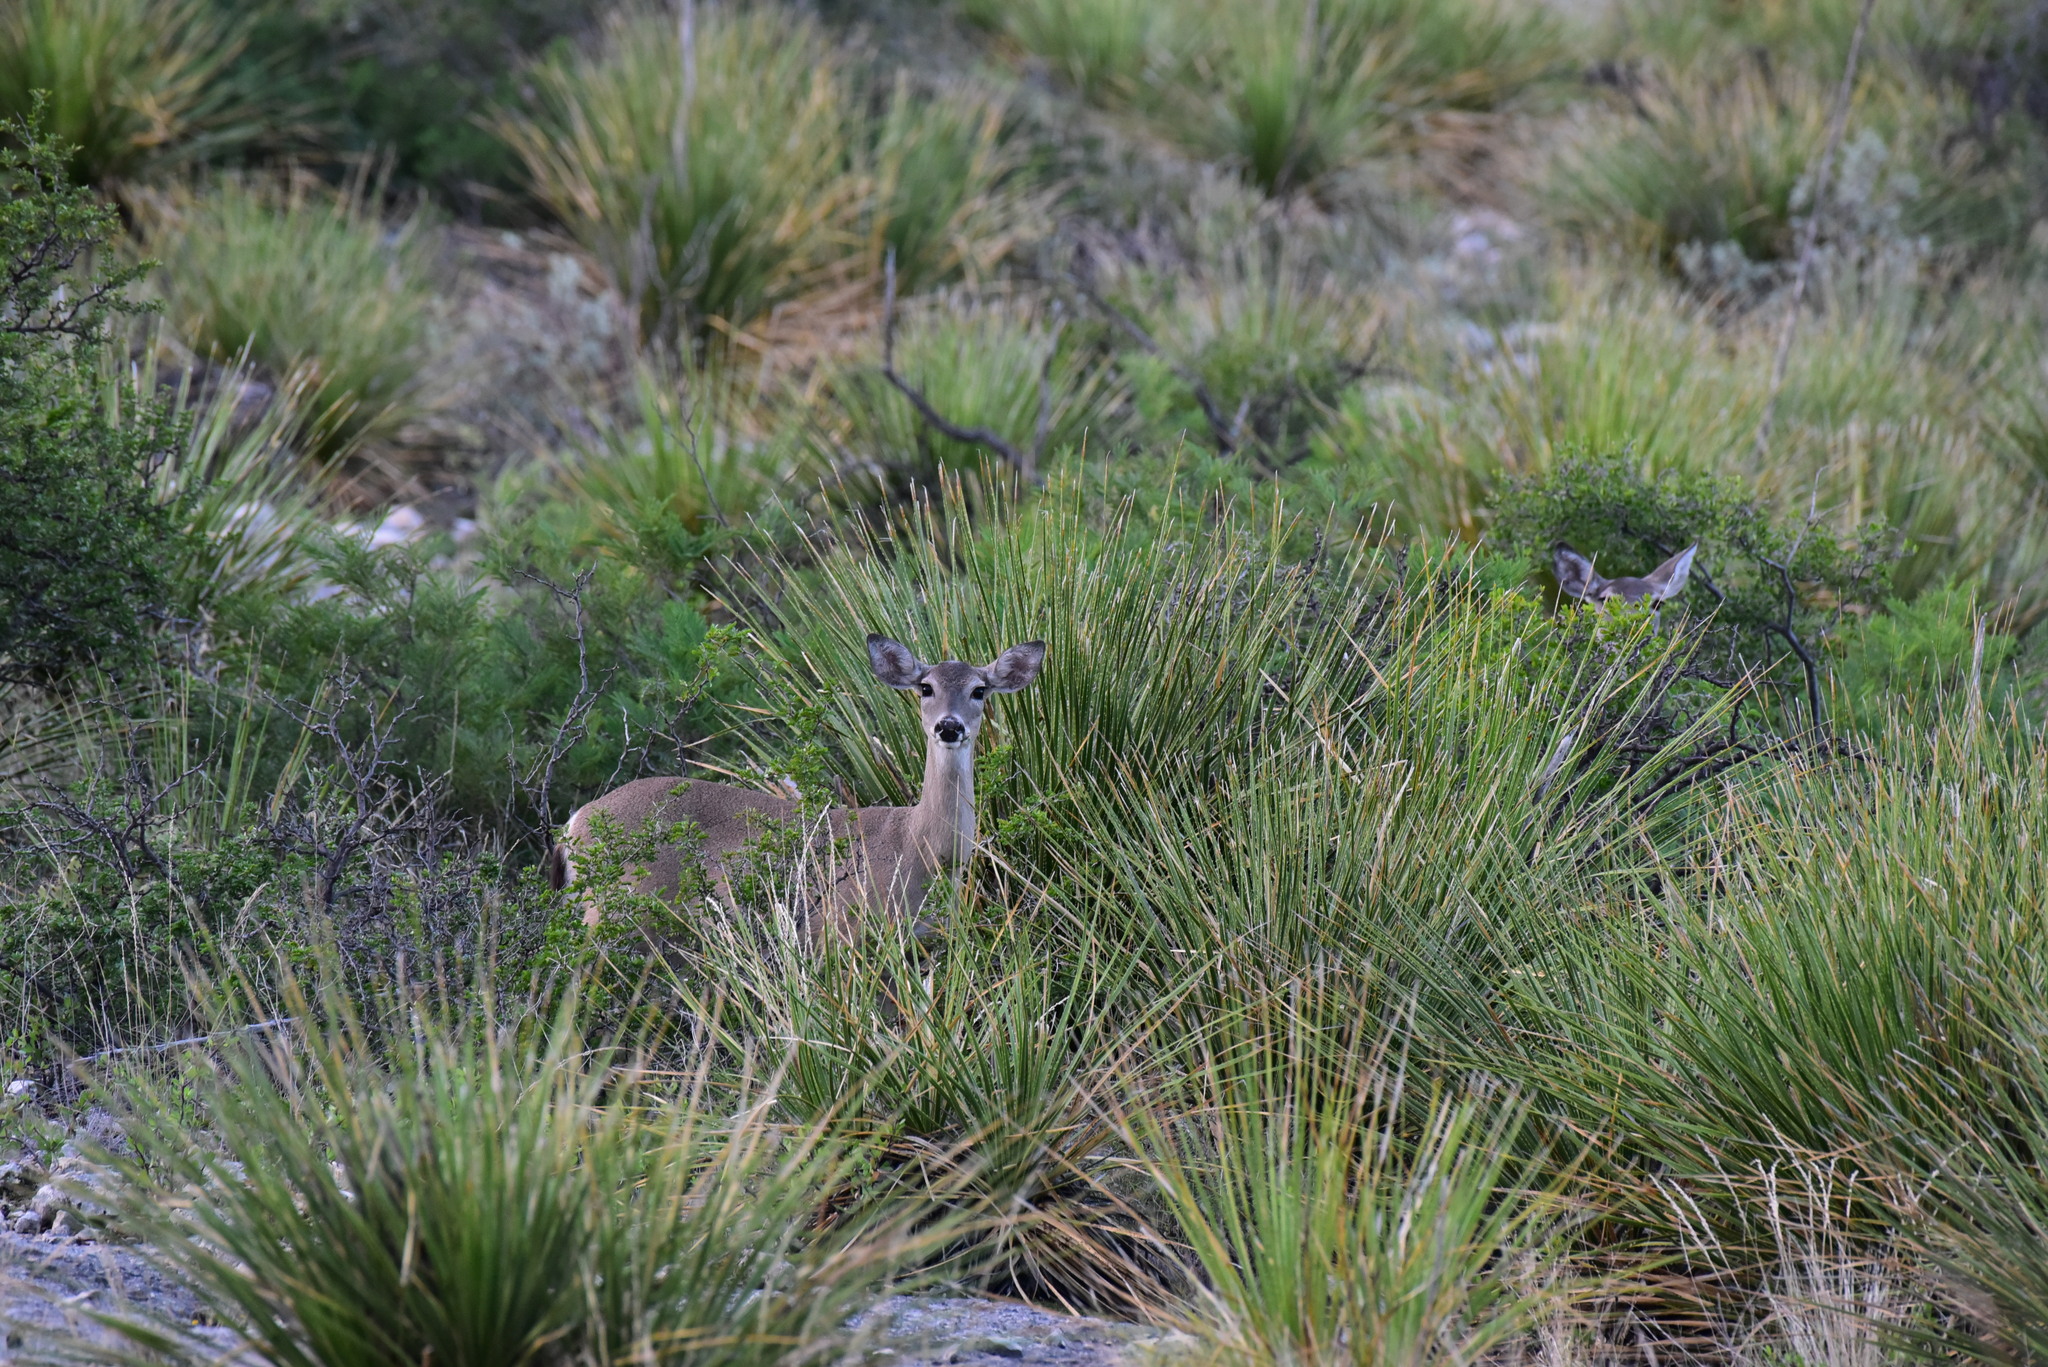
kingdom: Animalia
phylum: Chordata
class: Mammalia
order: Artiodactyla
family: Cervidae
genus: Odocoileus
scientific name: Odocoileus virginianus
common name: White-tailed deer
